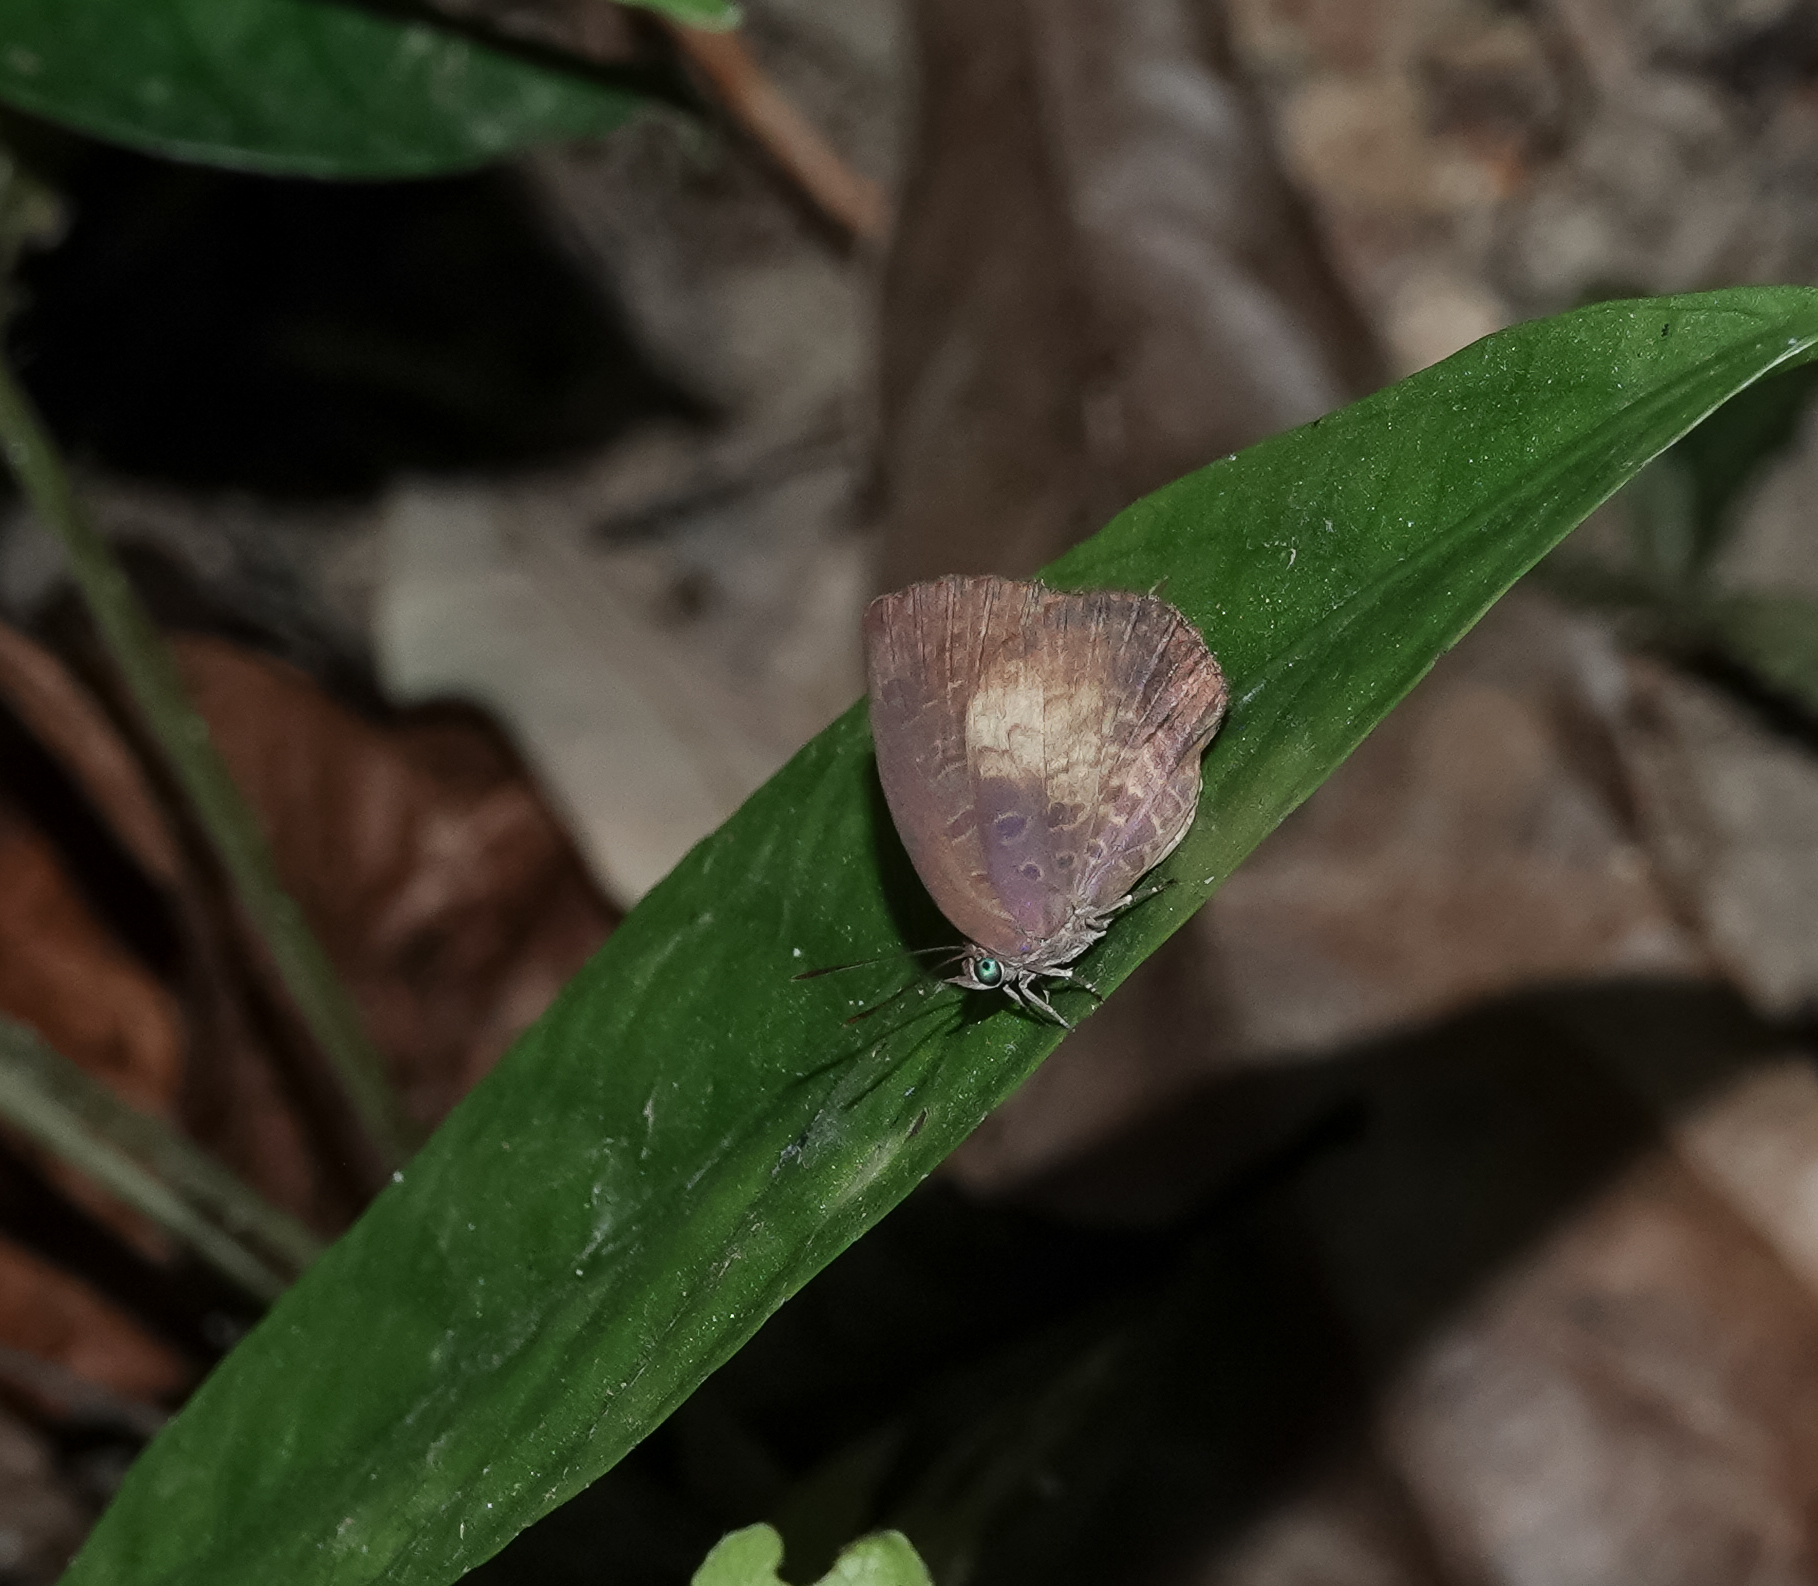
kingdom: Animalia
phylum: Arthropoda
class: Insecta
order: Lepidoptera
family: Lycaenidae
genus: Arhopala
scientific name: Arhopala perimuta
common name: Yellowdisc oakblue
